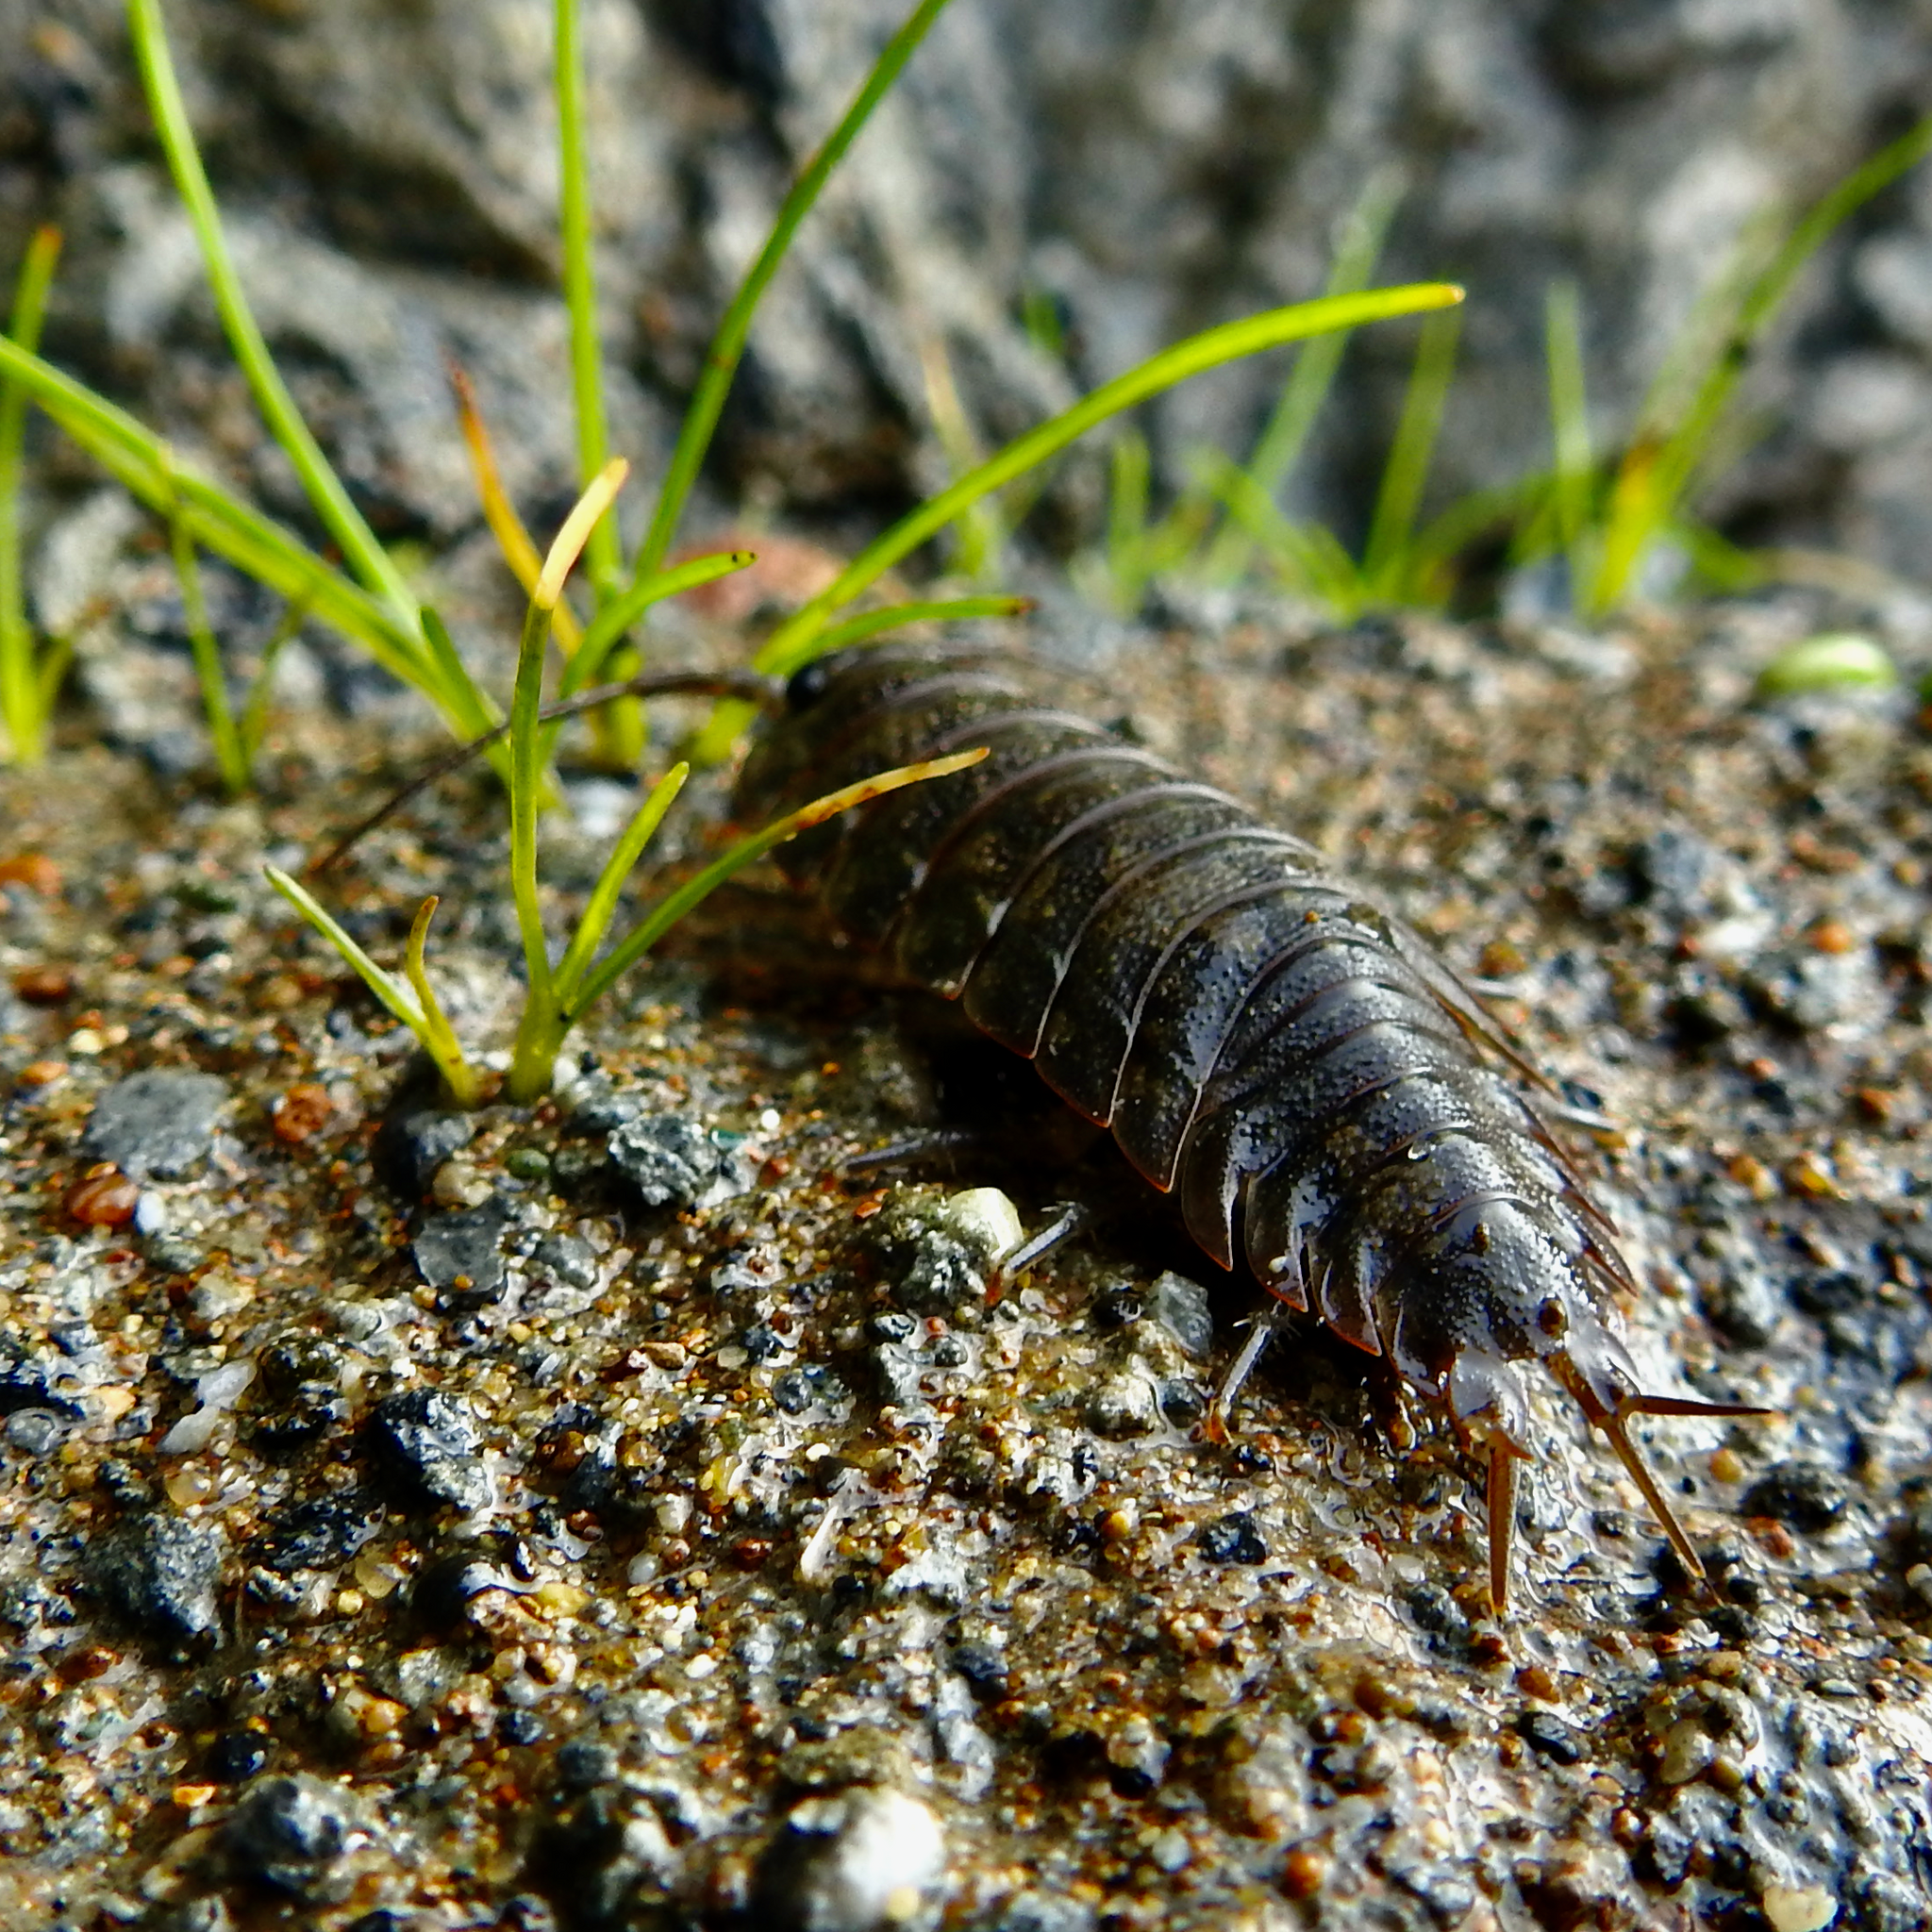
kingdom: Animalia
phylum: Arthropoda
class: Malacostraca
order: Isopoda
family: Ligiidae
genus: Ligia
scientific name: Ligia pallasii
